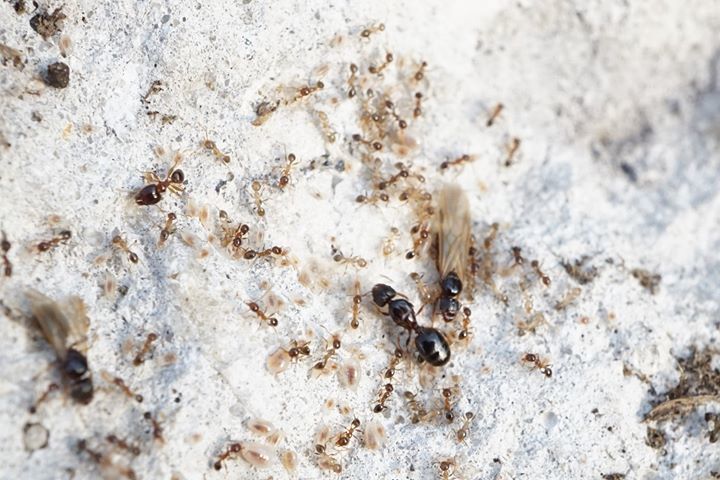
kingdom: Animalia
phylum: Arthropoda
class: Insecta
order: Hymenoptera
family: Formicidae
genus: Pheidole
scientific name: Pheidole megacephala
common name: Bigheaded ant
